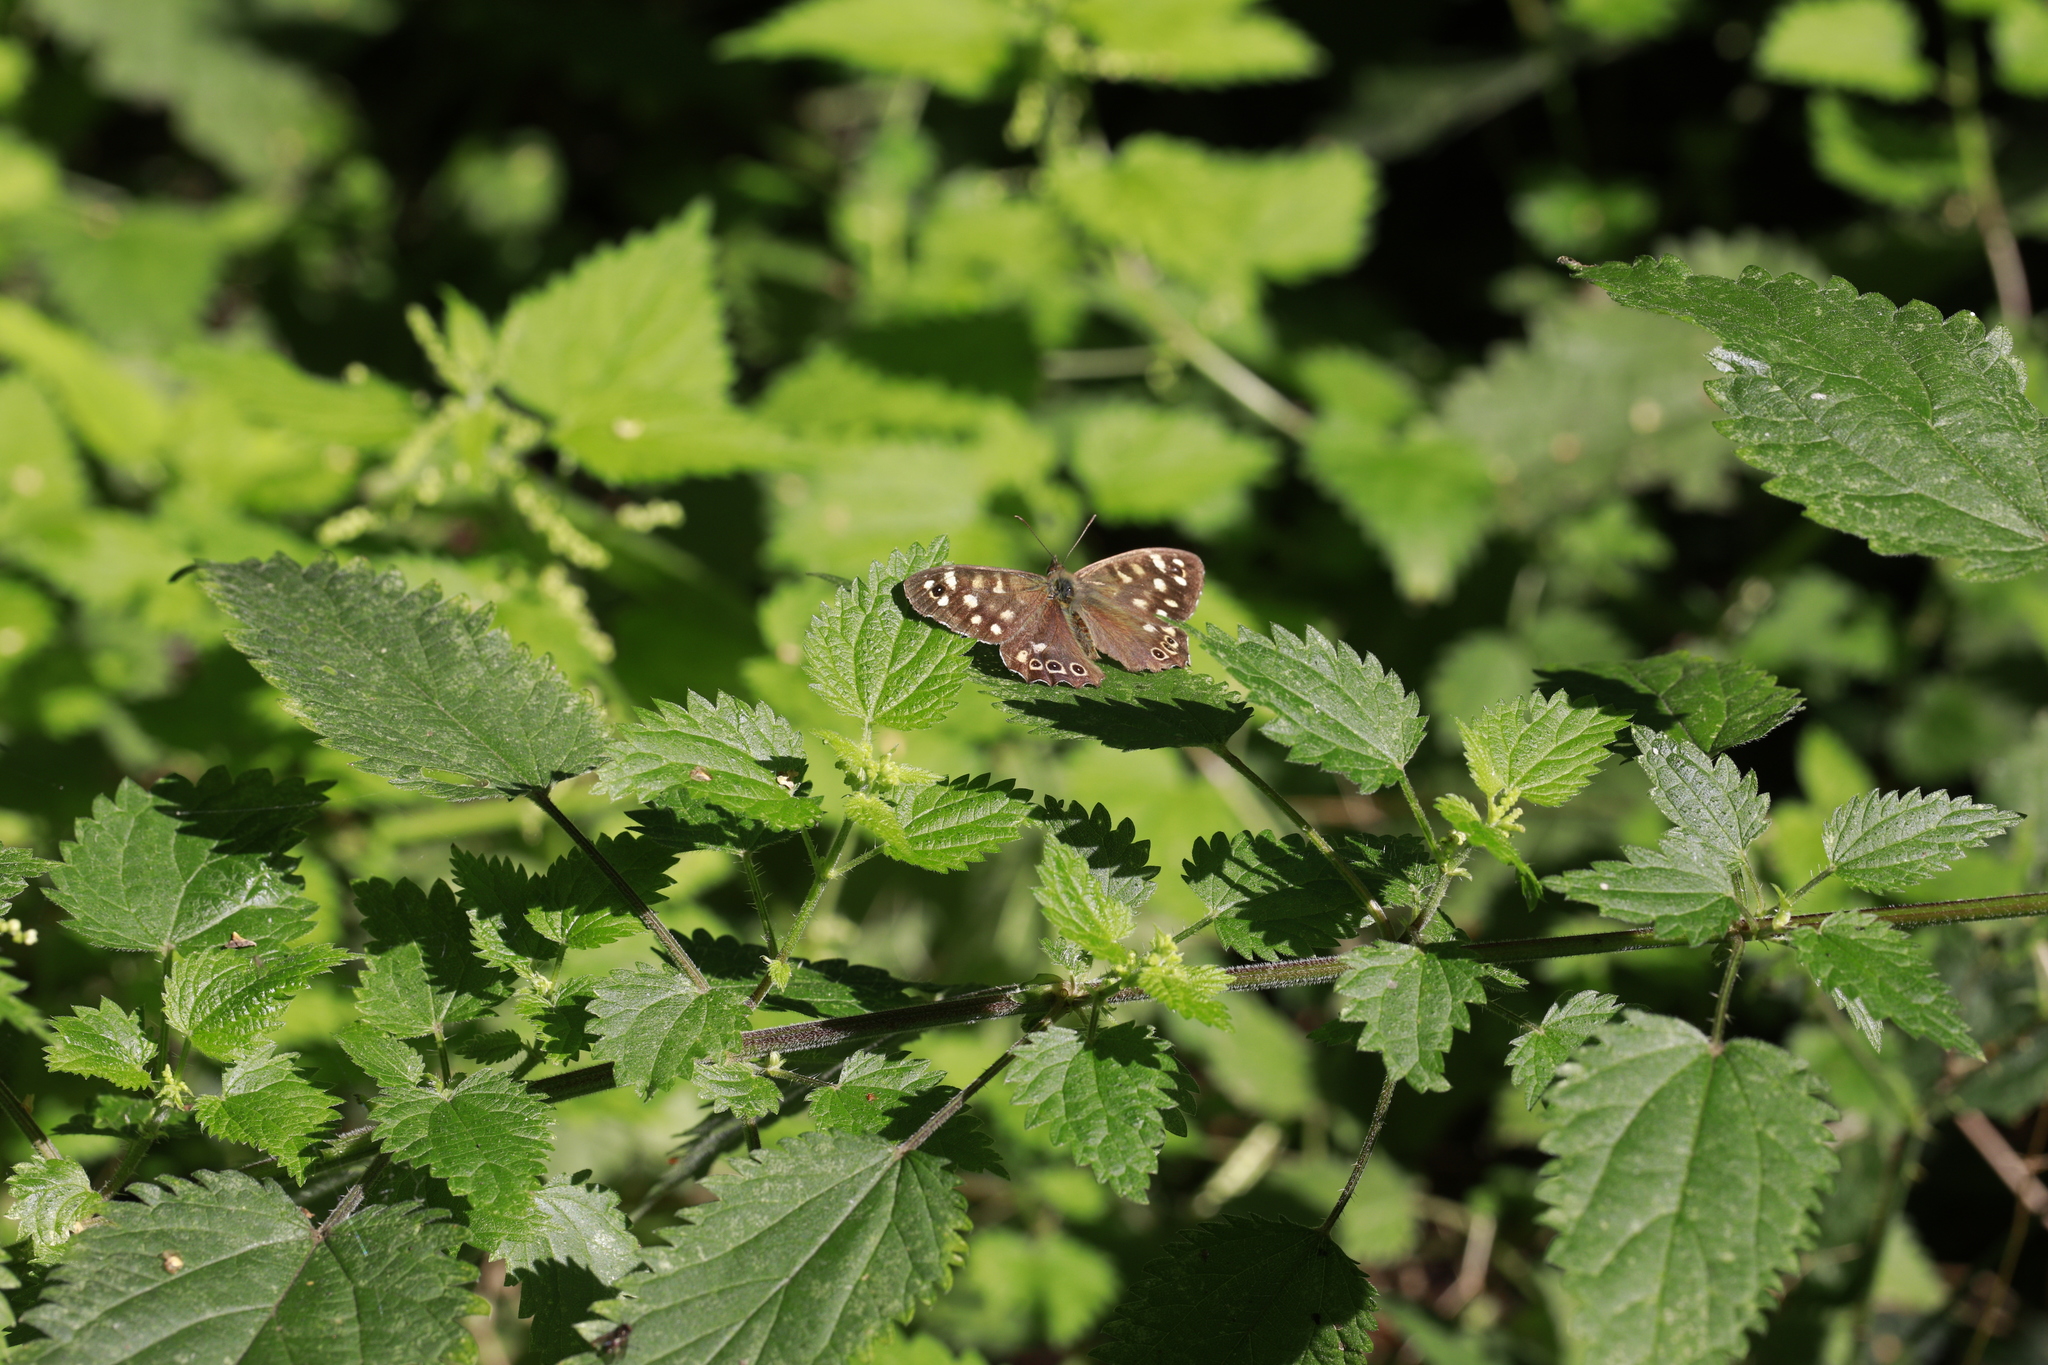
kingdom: Animalia
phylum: Arthropoda
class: Insecta
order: Lepidoptera
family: Nymphalidae
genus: Pararge
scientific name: Pararge aegeria
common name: Speckled wood
